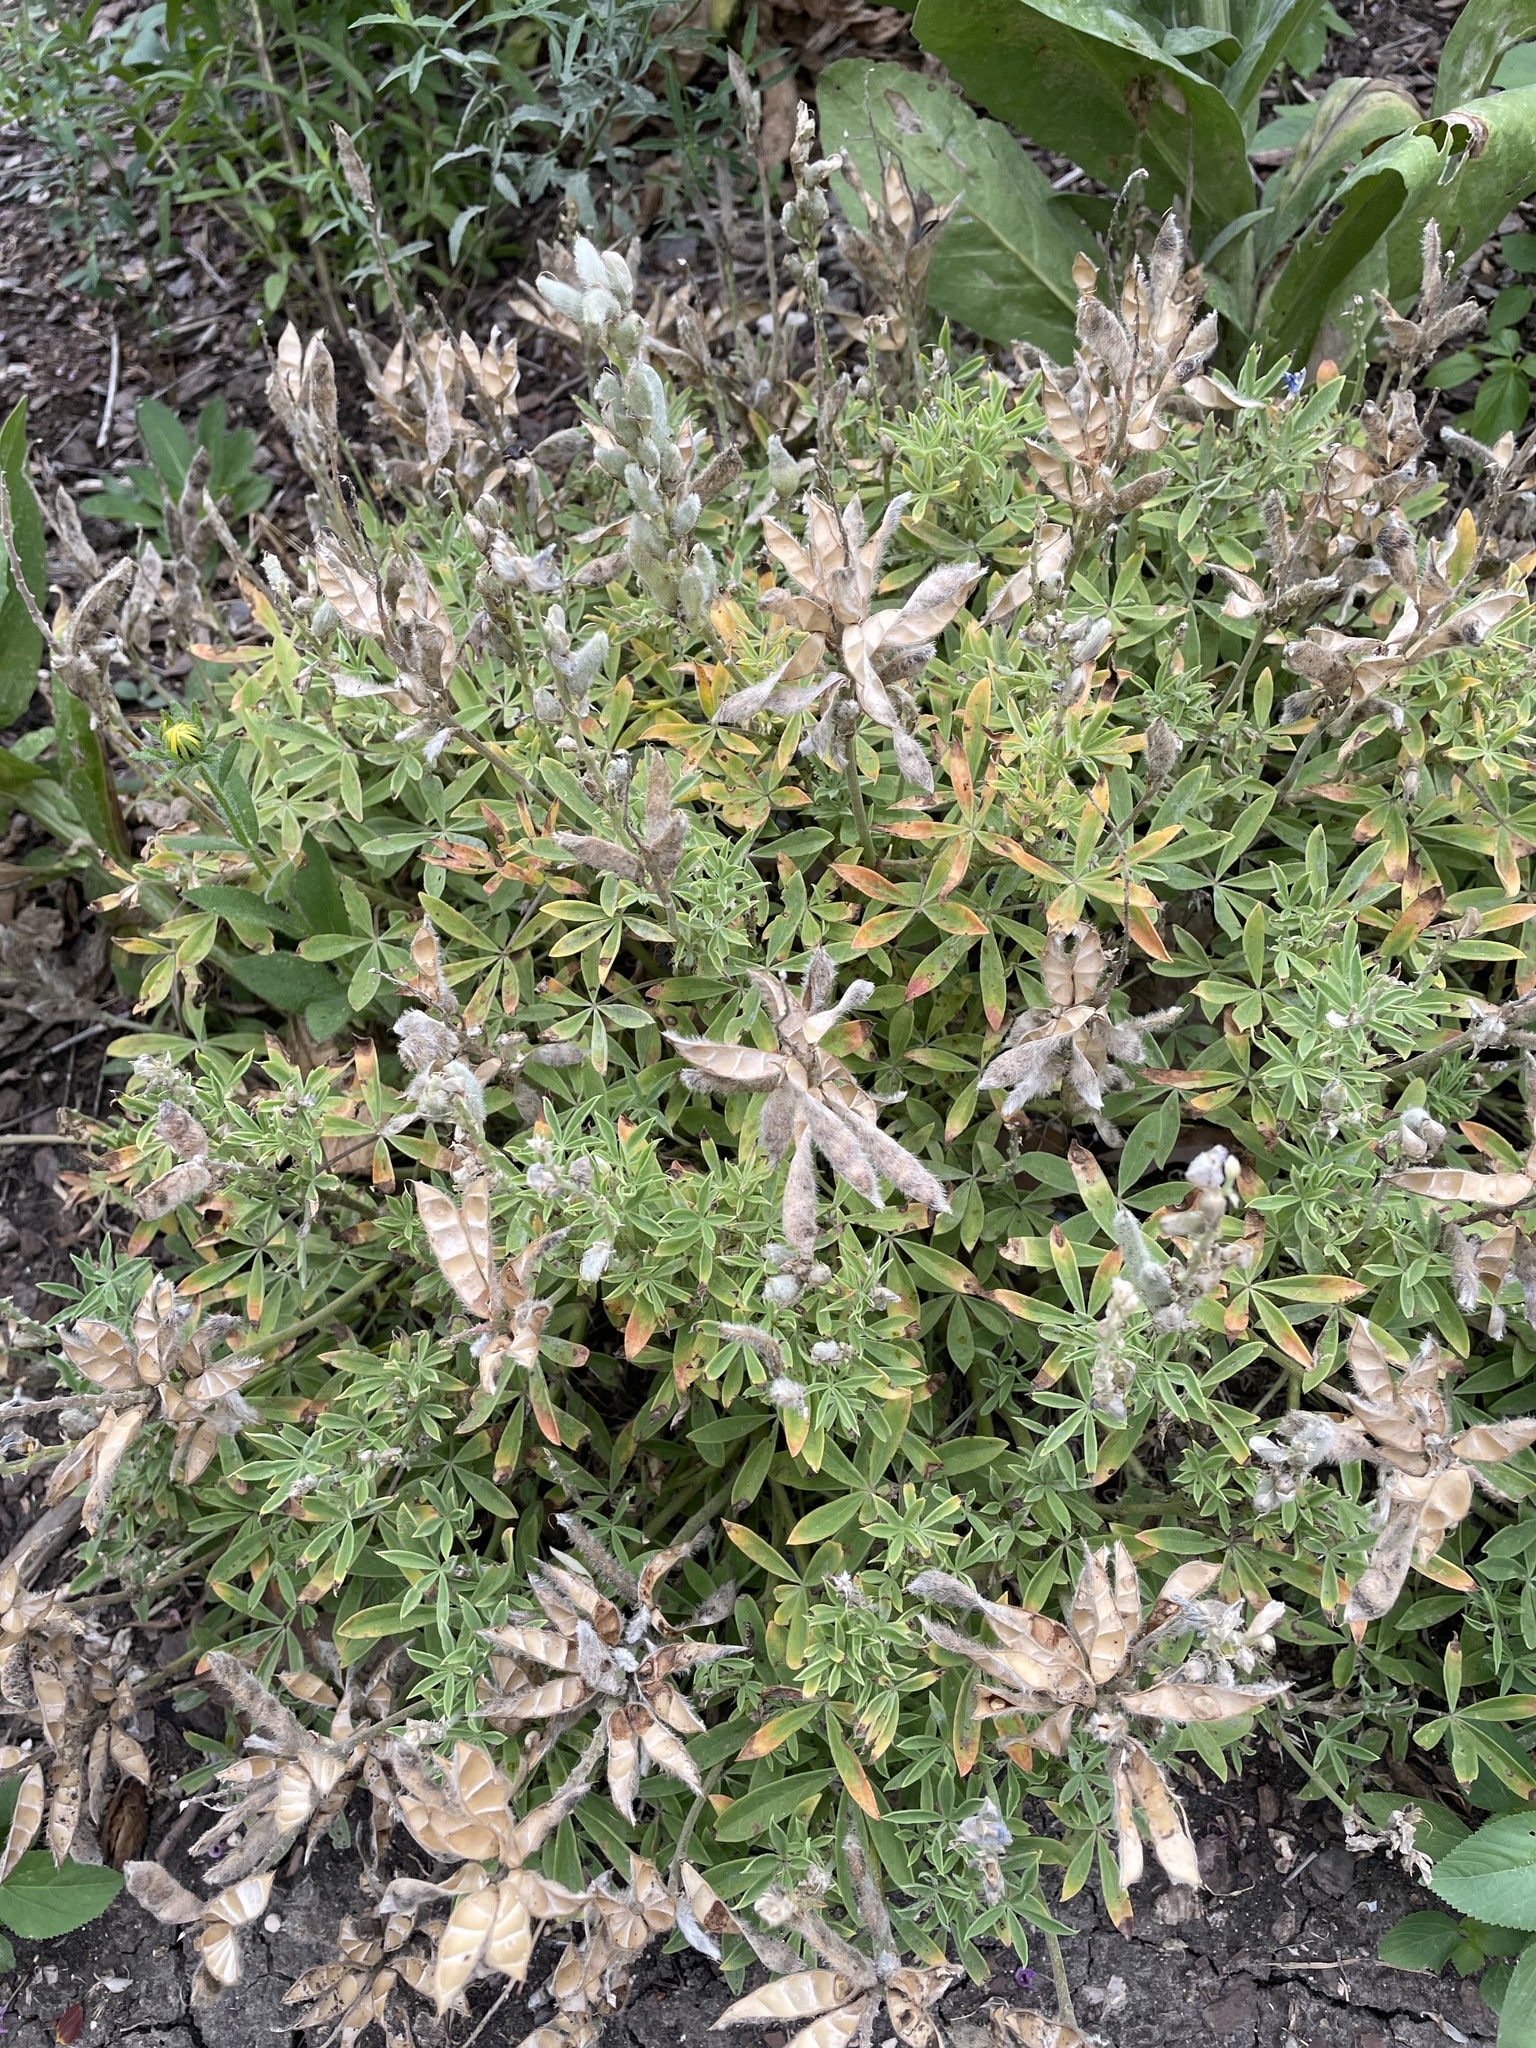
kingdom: Plantae
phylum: Tracheophyta
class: Magnoliopsida
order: Fabales
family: Fabaceae
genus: Lupinus
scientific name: Lupinus texensis
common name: Texas bluebonnet
